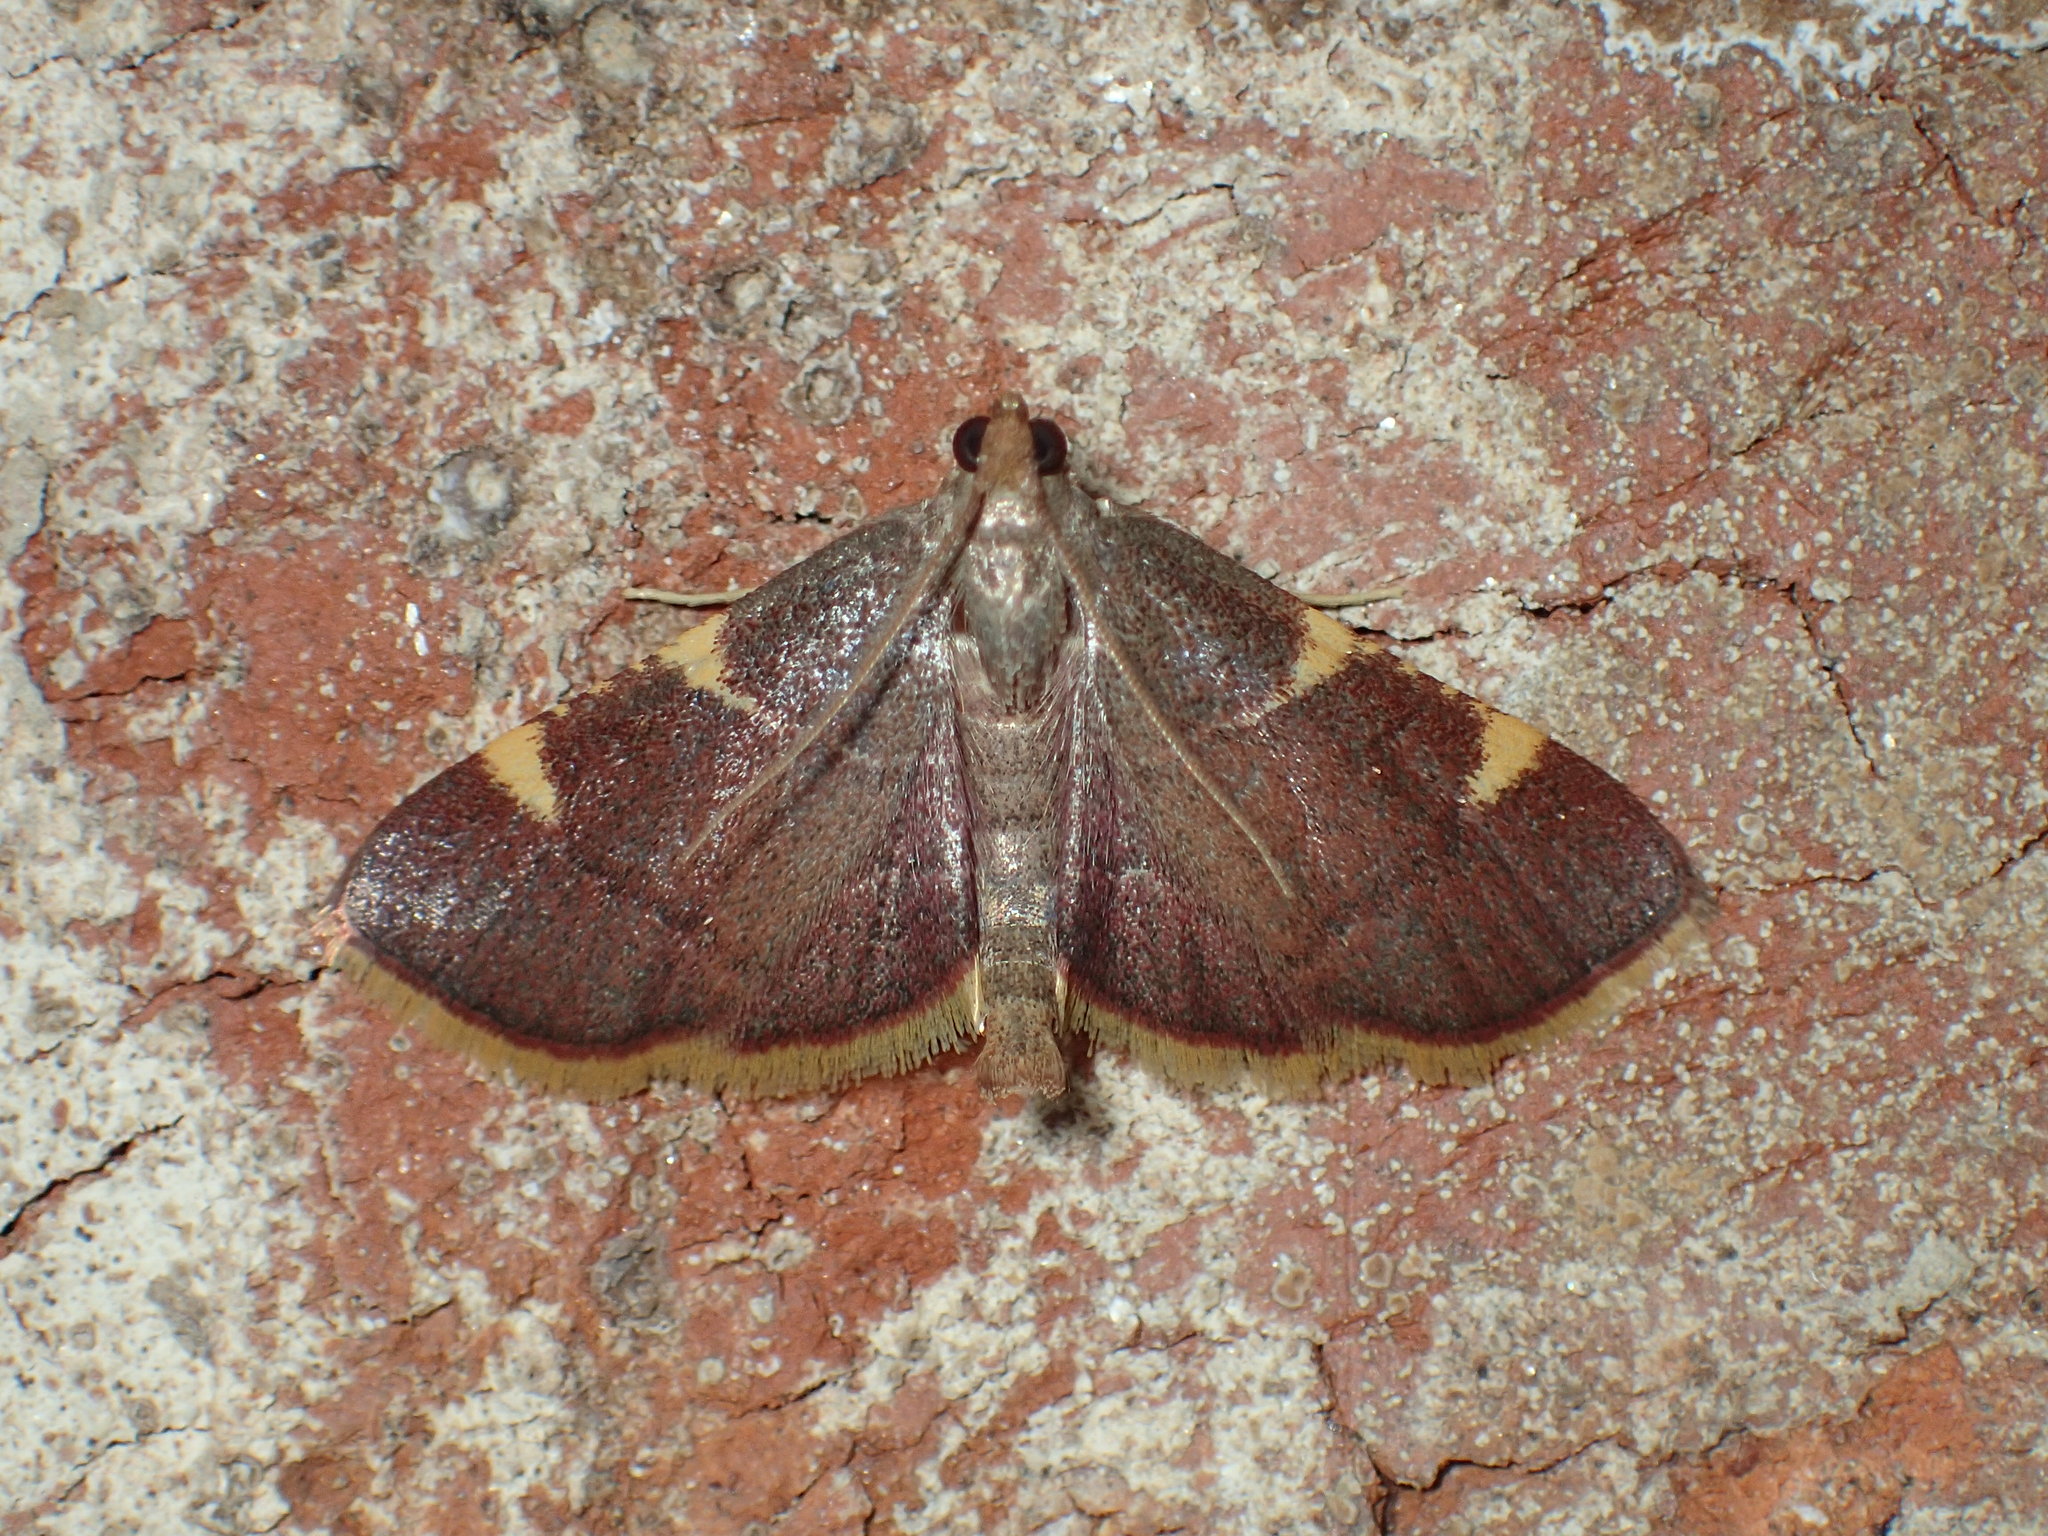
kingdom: Animalia
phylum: Arthropoda
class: Insecta
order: Lepidoptera
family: Pyralidae
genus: Hypsopygia
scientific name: Hypsopygia olinalis
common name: Yellow-fringed dolichomia moth
